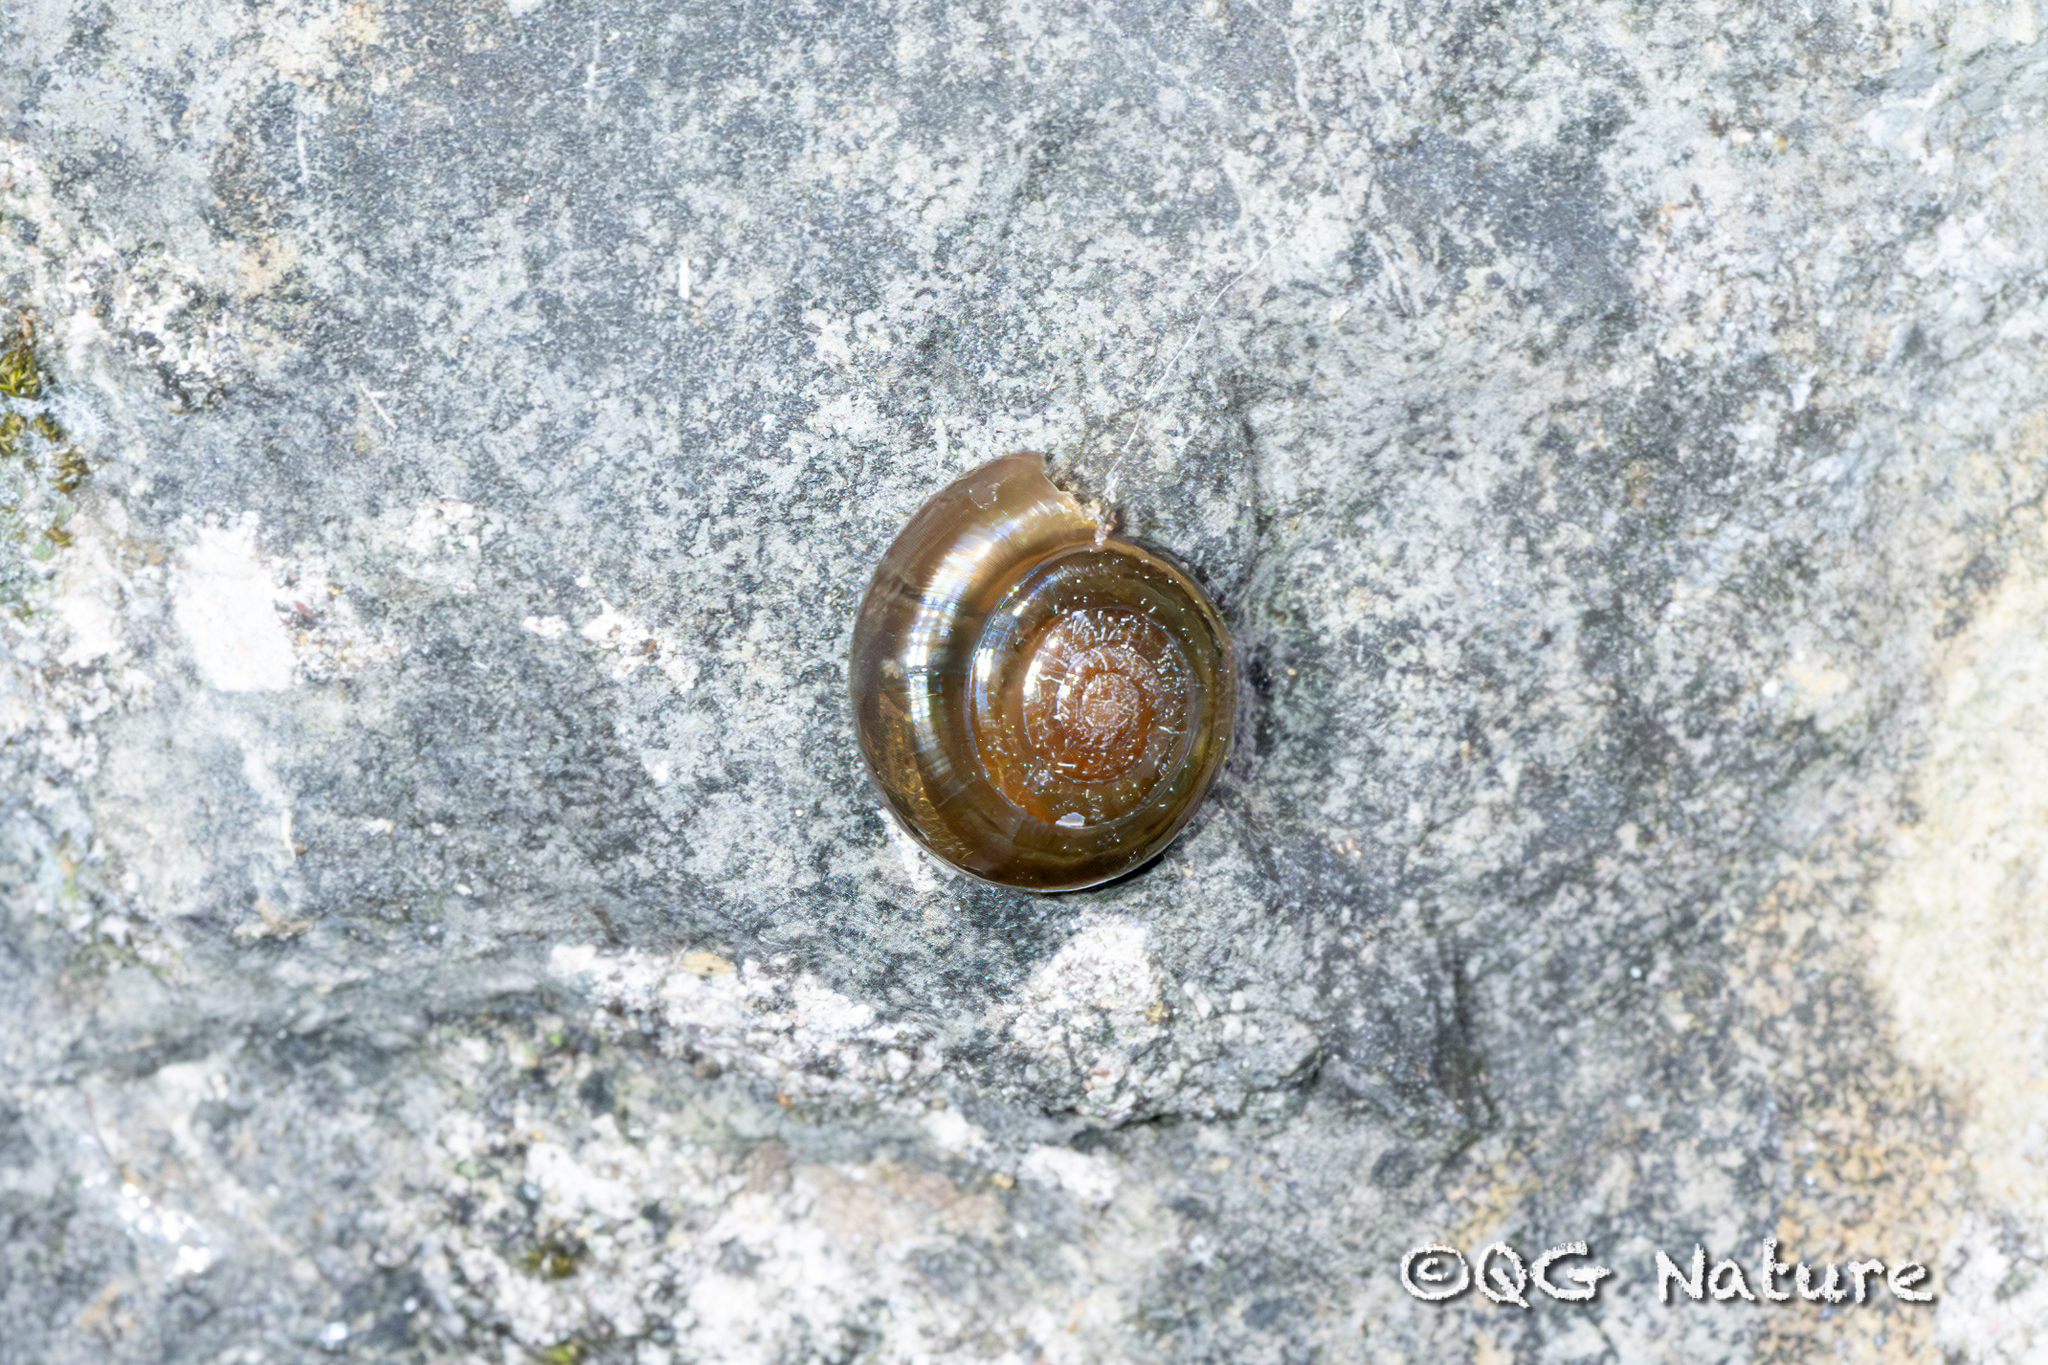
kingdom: Animalia
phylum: Mollusca
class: Gastropoda
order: Stylommatophora
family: Ariophantidae
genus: Sarika
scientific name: Sarika resplendens
